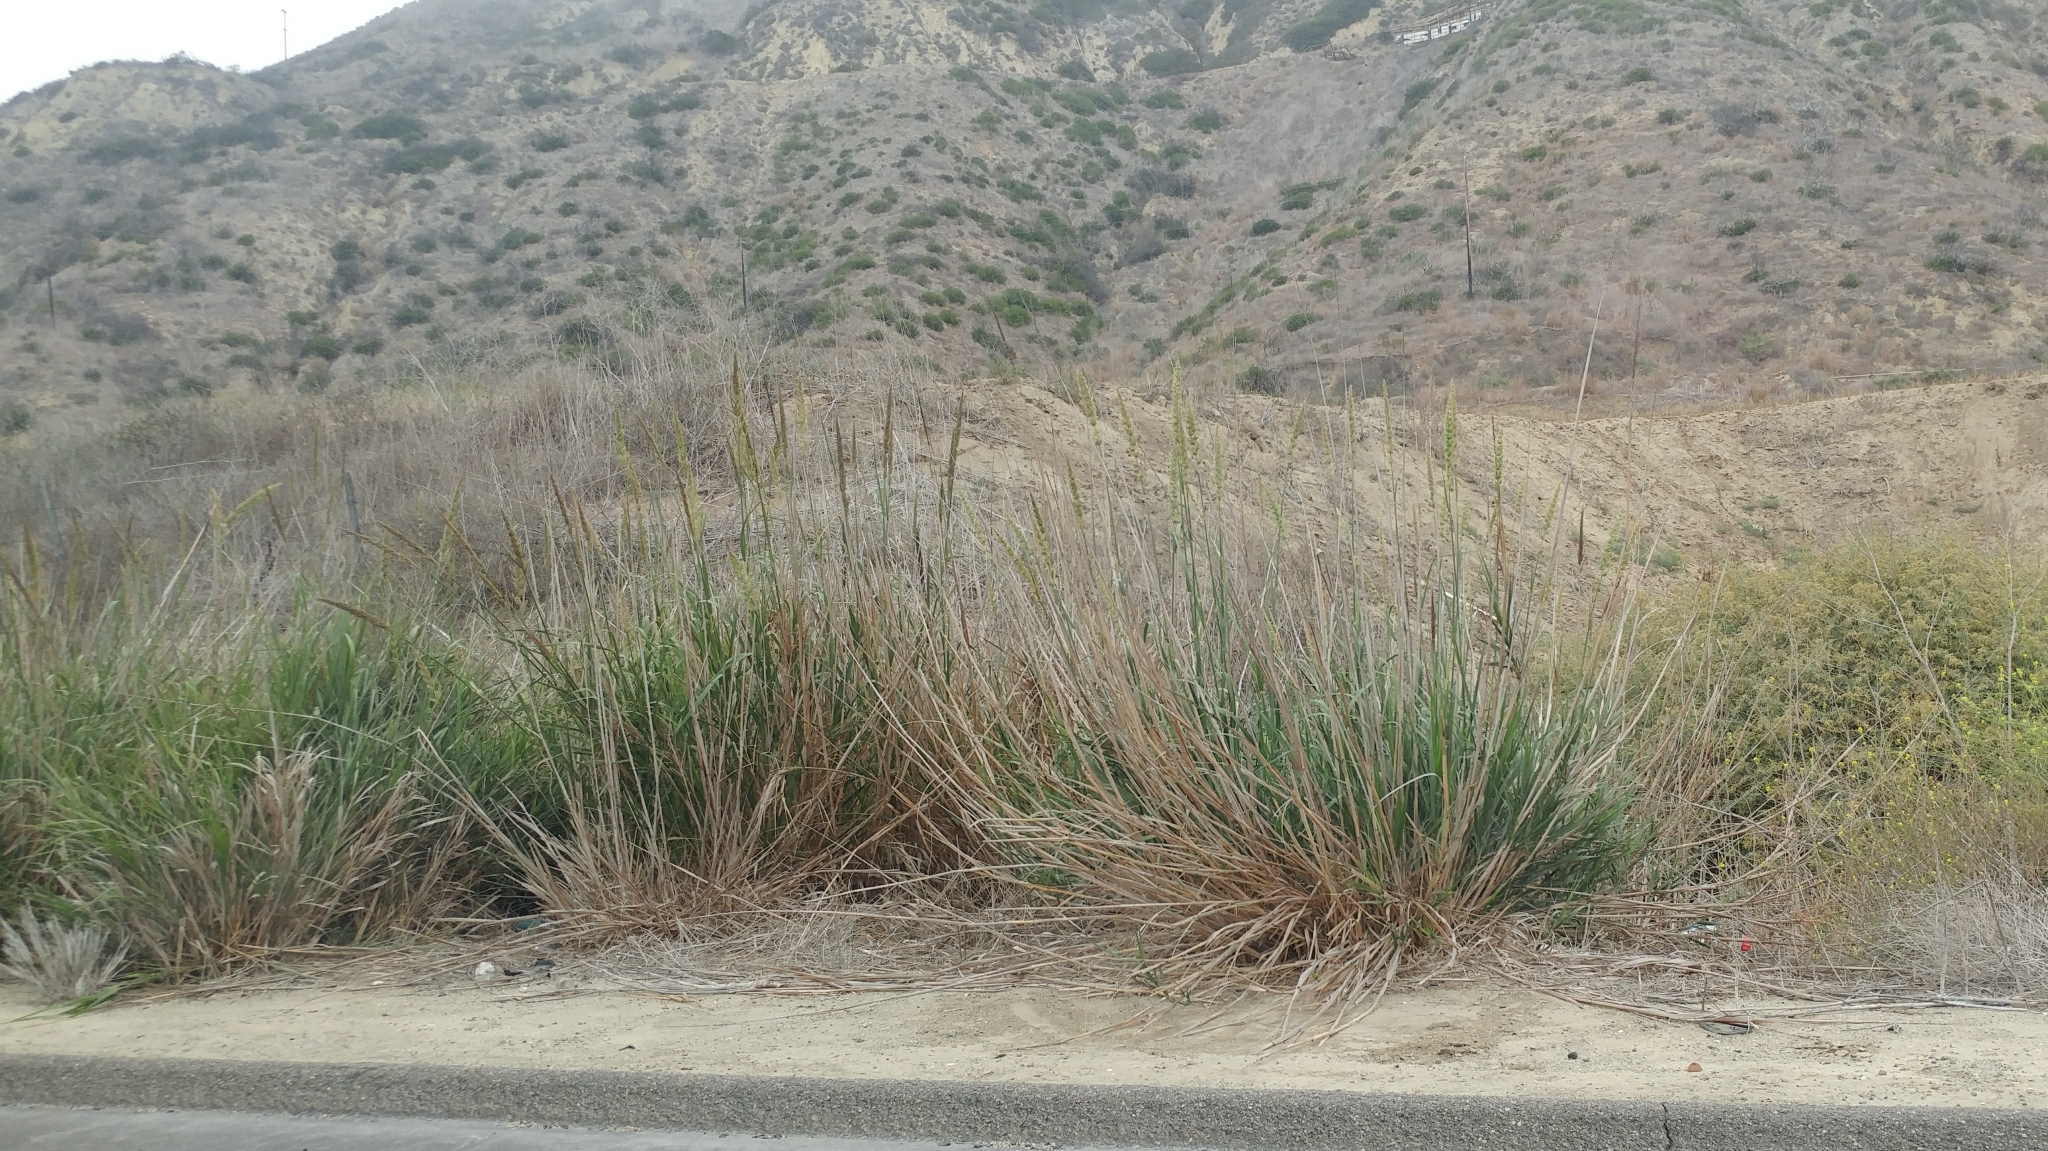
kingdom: Plantae
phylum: Tracheophyta
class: Liliopsida
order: Poales
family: Poaceae
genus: Leymus
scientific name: Leymus condensatus
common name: Giant wild rye
